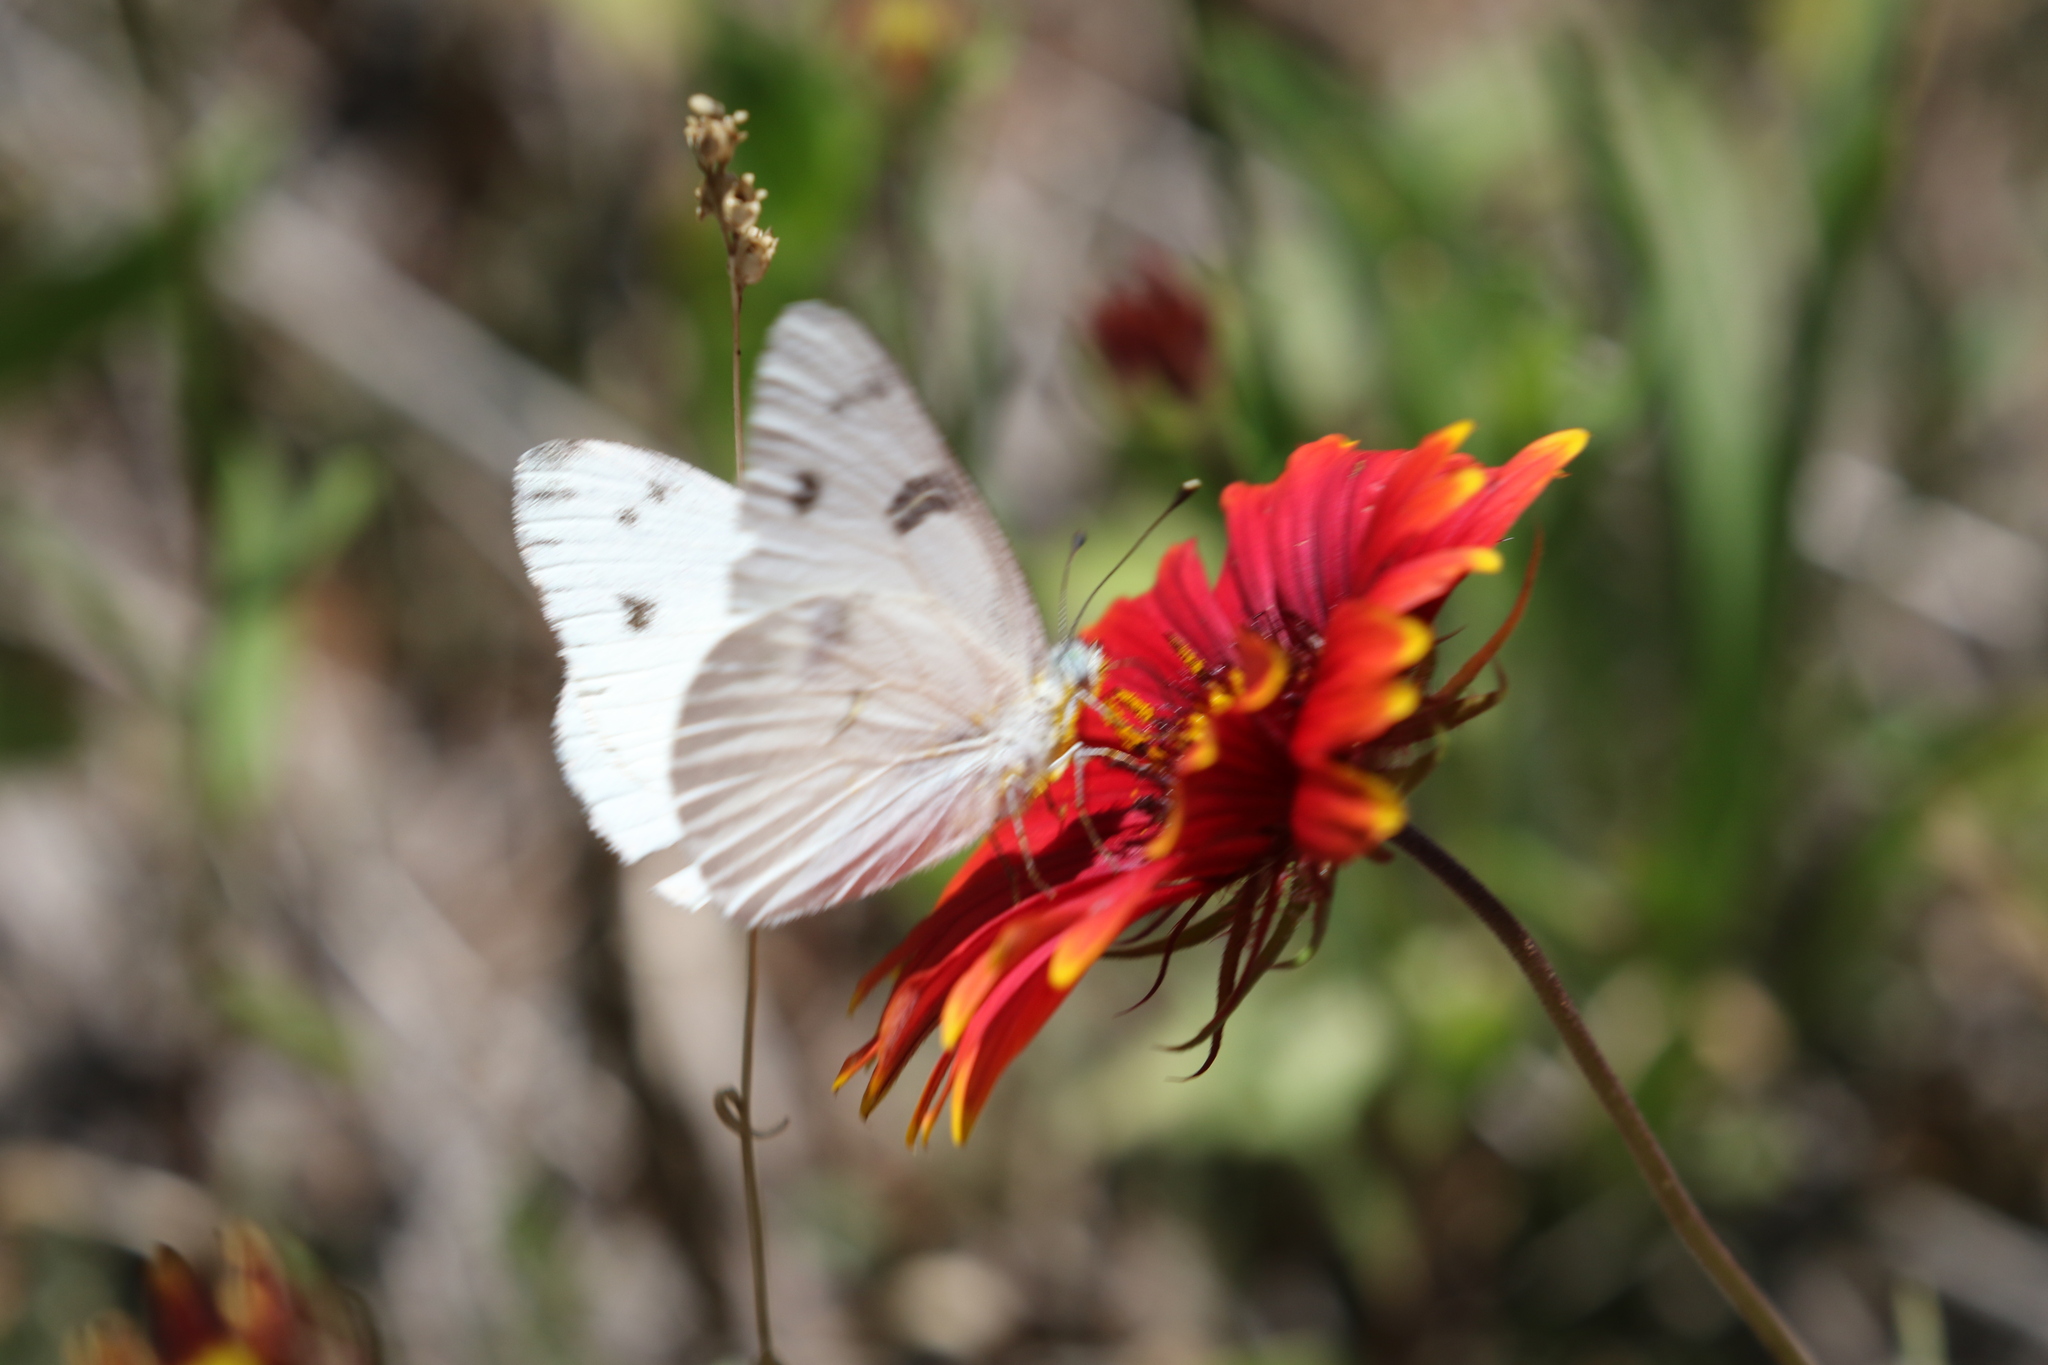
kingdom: Animalia
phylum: Arthropoda
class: Insecta
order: Lepidoptera
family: Pieridae
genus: Pontia
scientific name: Pontia protodice
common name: Checkered white
